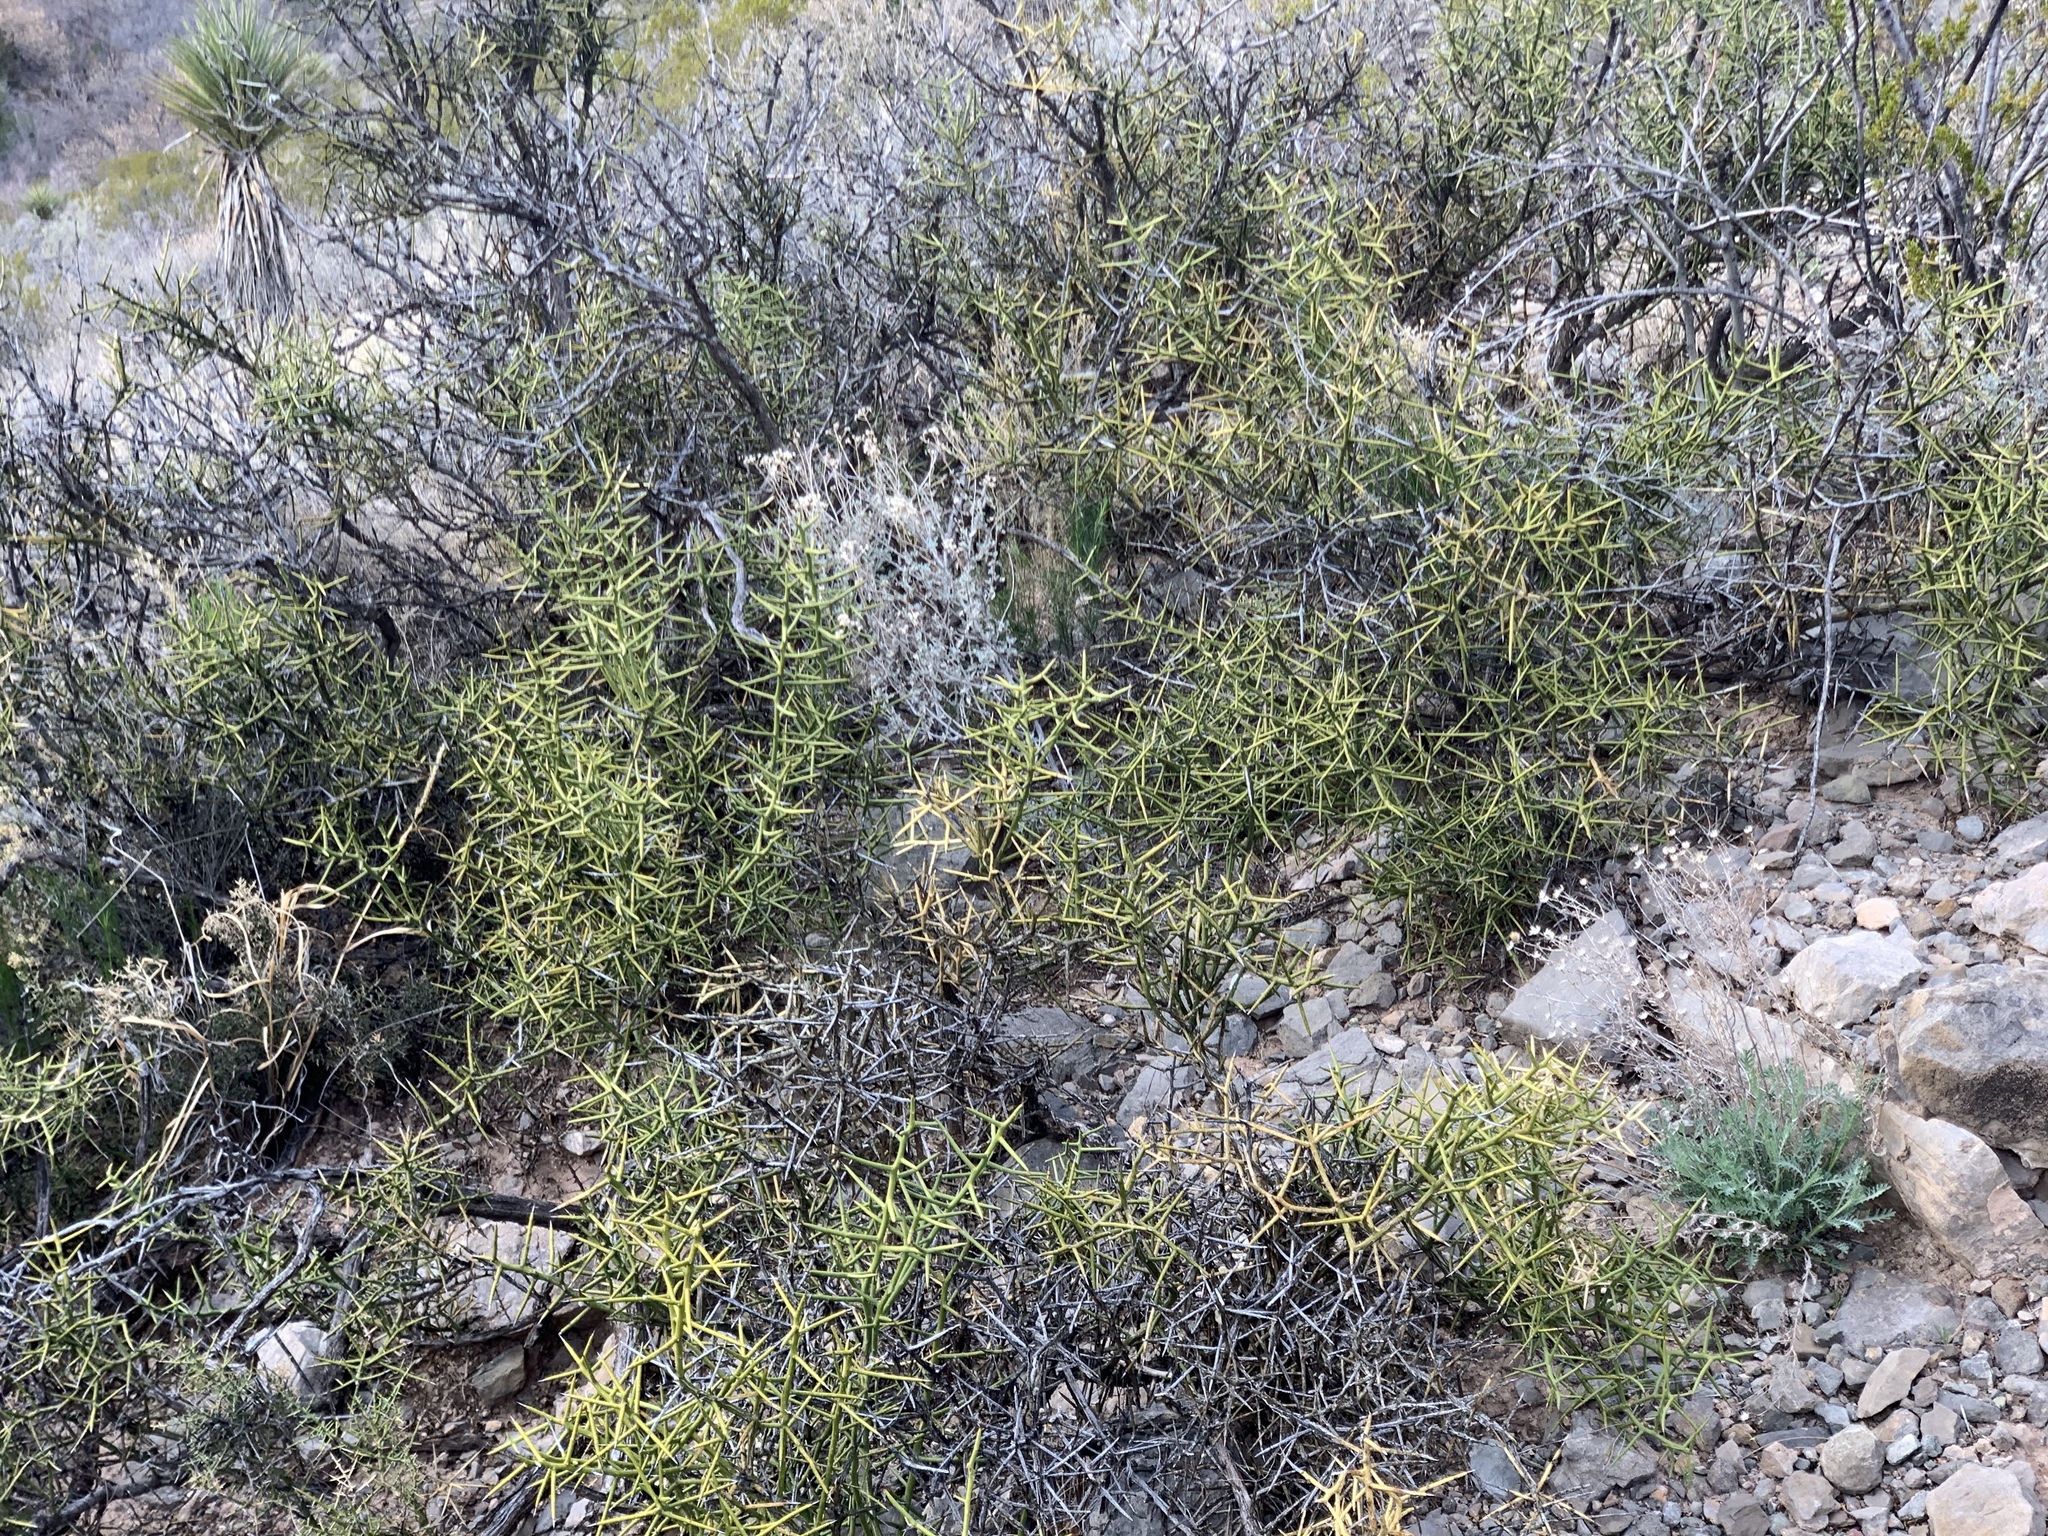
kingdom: Plantae
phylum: Tracheophyta
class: Magnoliopsida
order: Brassicales
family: Koeberliniaceae
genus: Koeberlinia
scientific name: Koeberlinia spinosa
